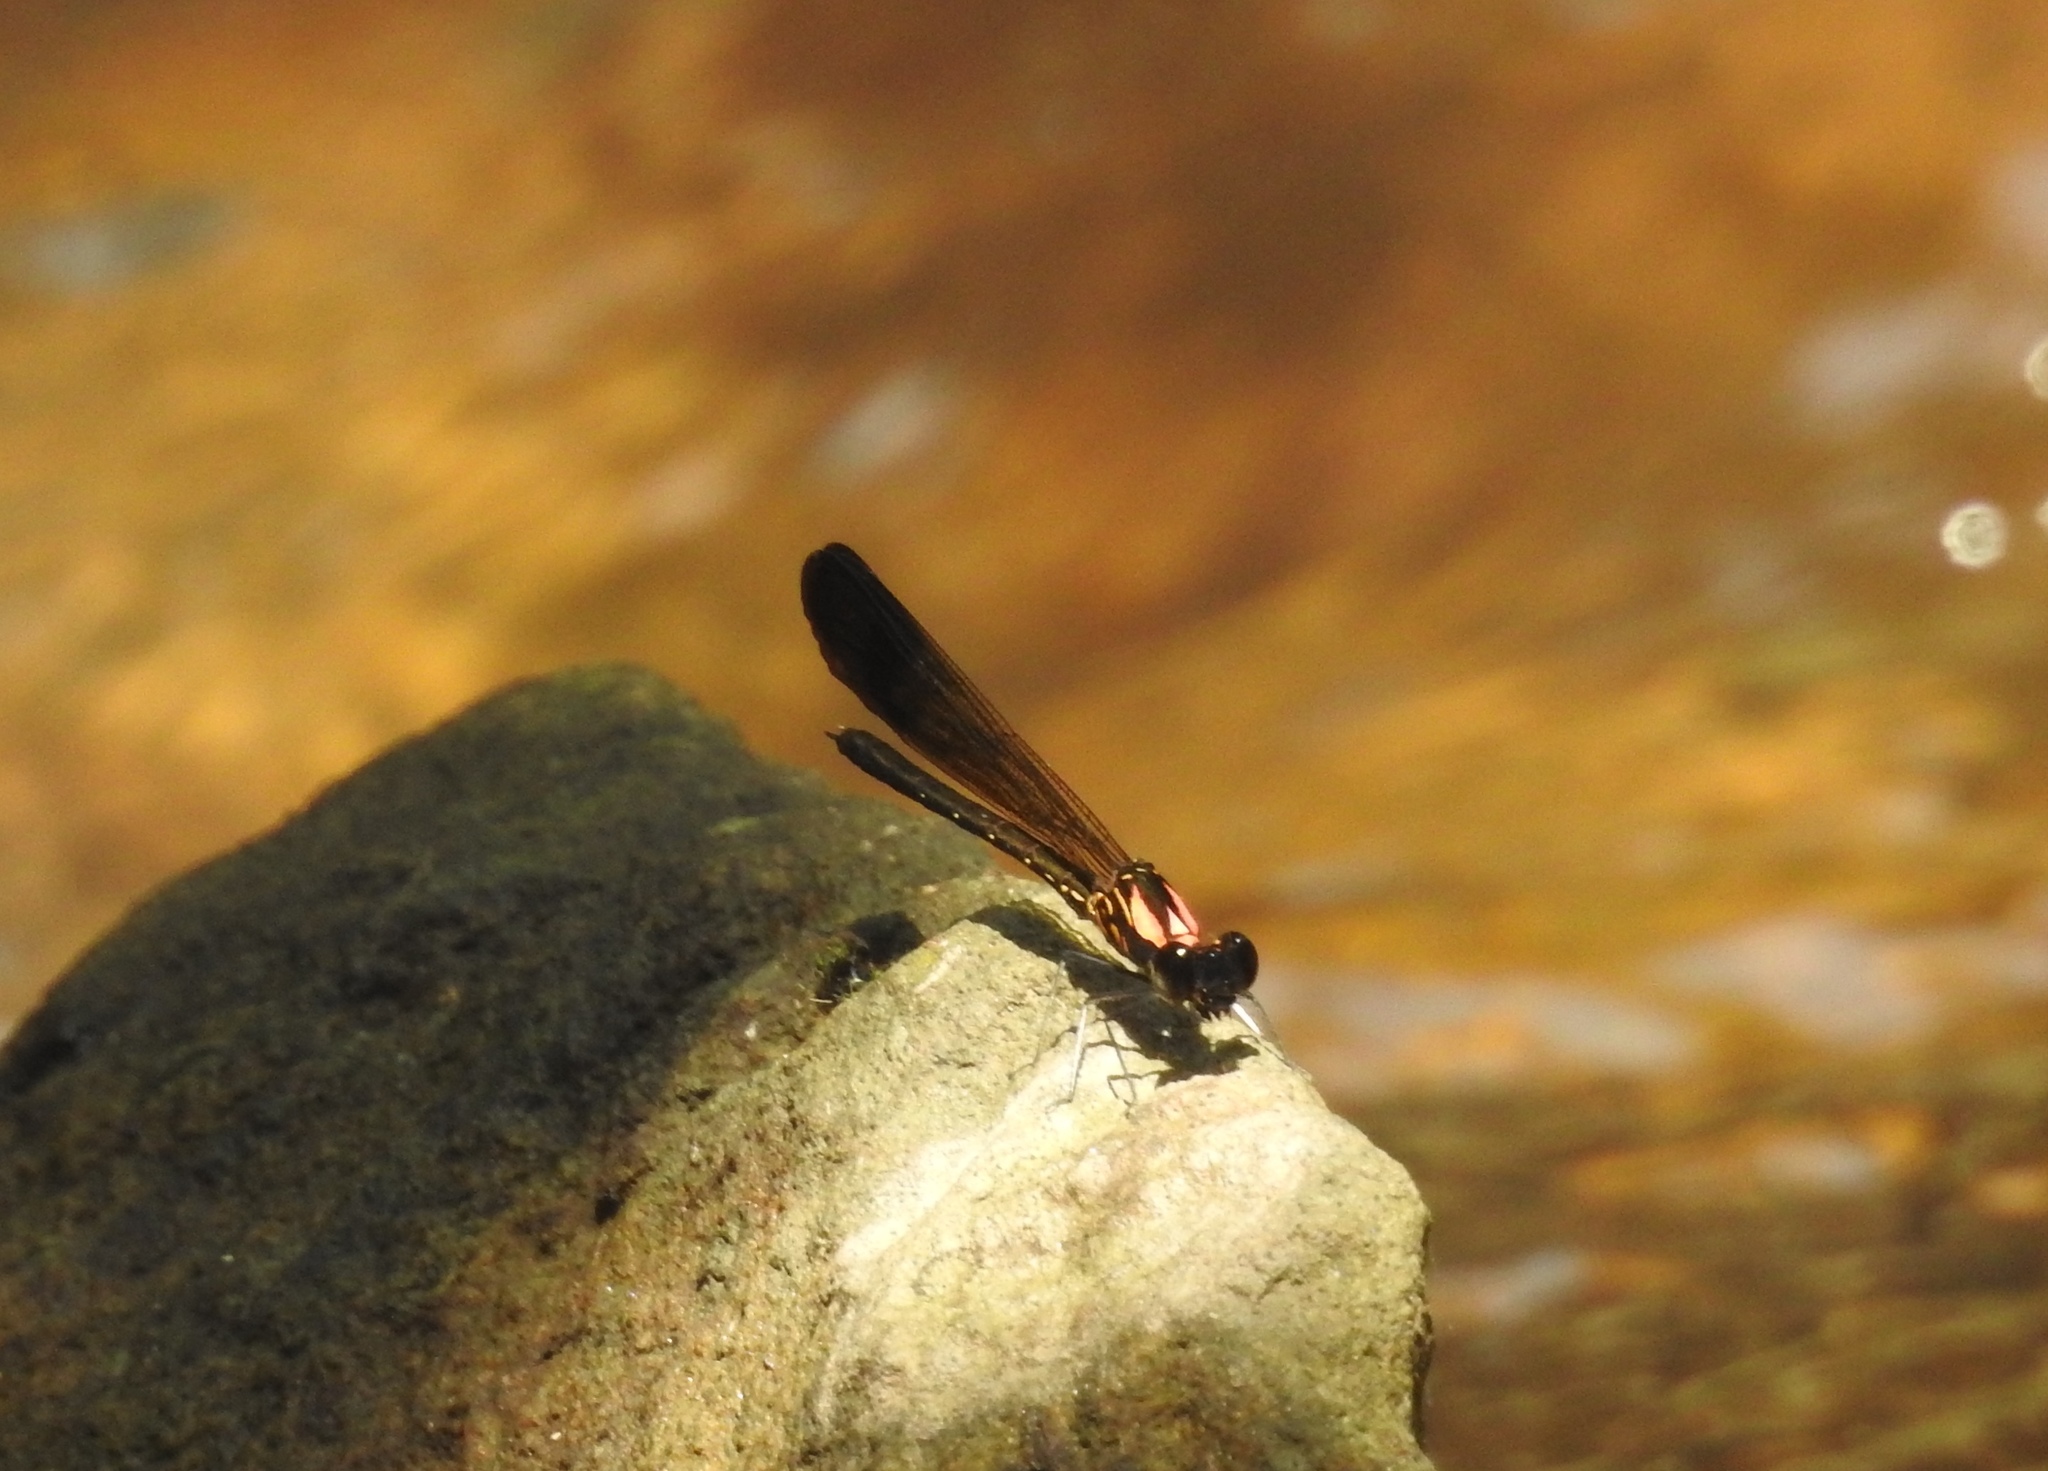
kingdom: Animalia
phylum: Arthropoda
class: Insecta
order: Odonata
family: Chlorocyphidae
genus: Heliocypha
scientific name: Heliocypha bisignata
